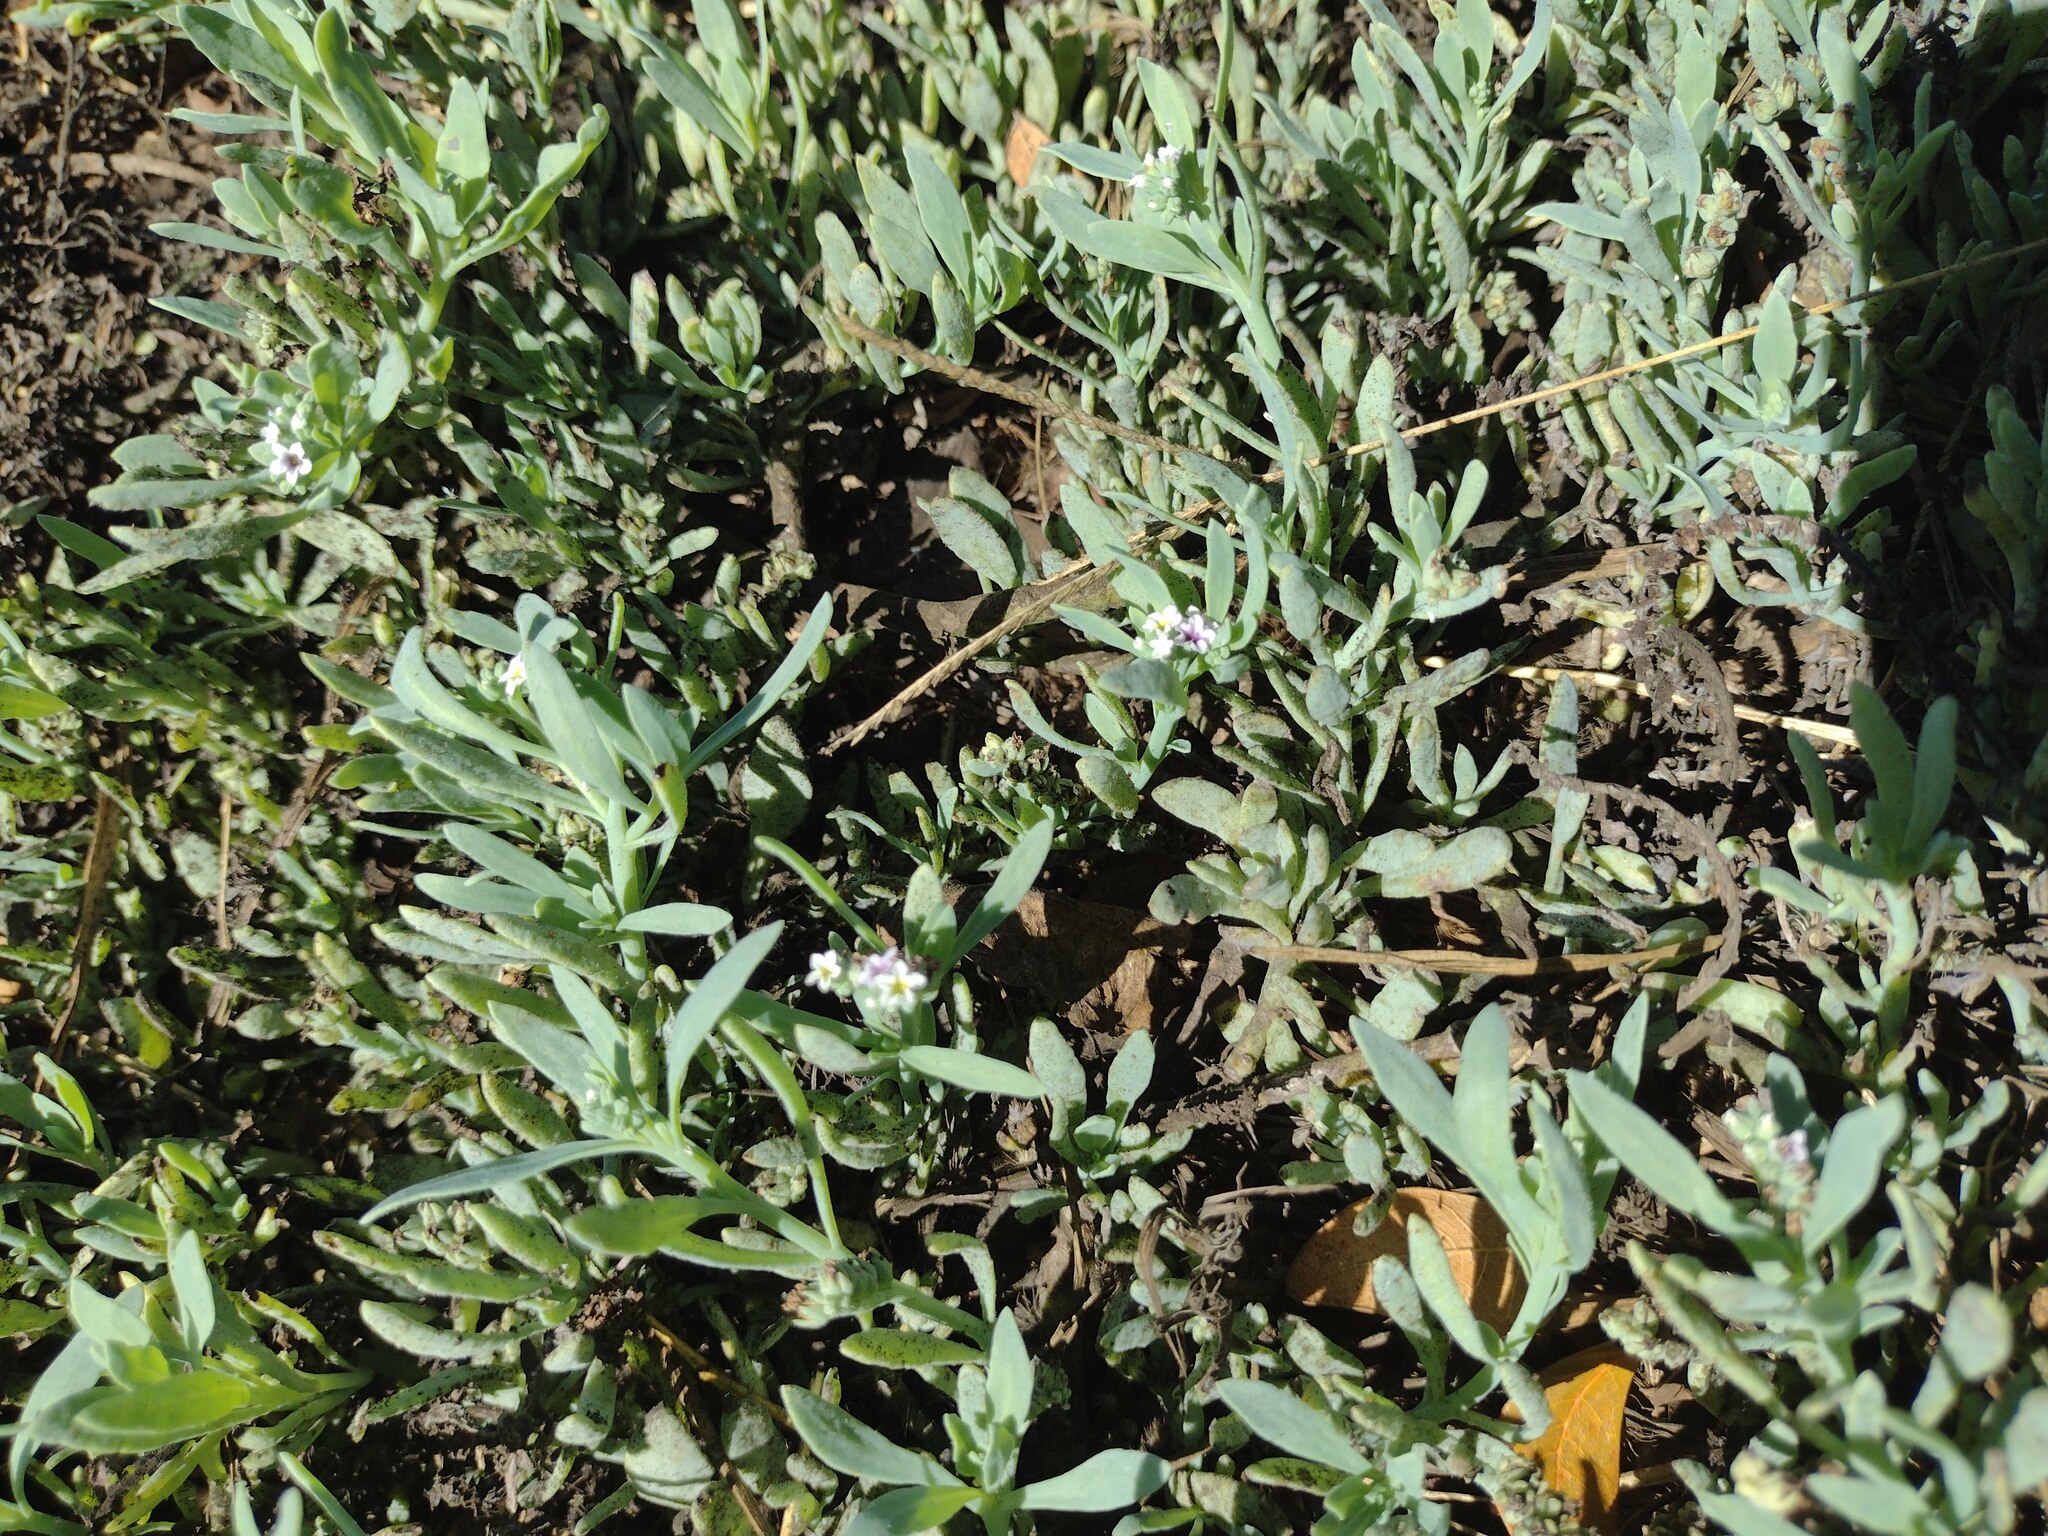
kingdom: Plantae
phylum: Tracheophyta
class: Magnoliopsida
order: Boraginales
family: Heliotropiaceae
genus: Heliotropium
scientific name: Heliotropium curassavicum
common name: Seaside heliotrope
